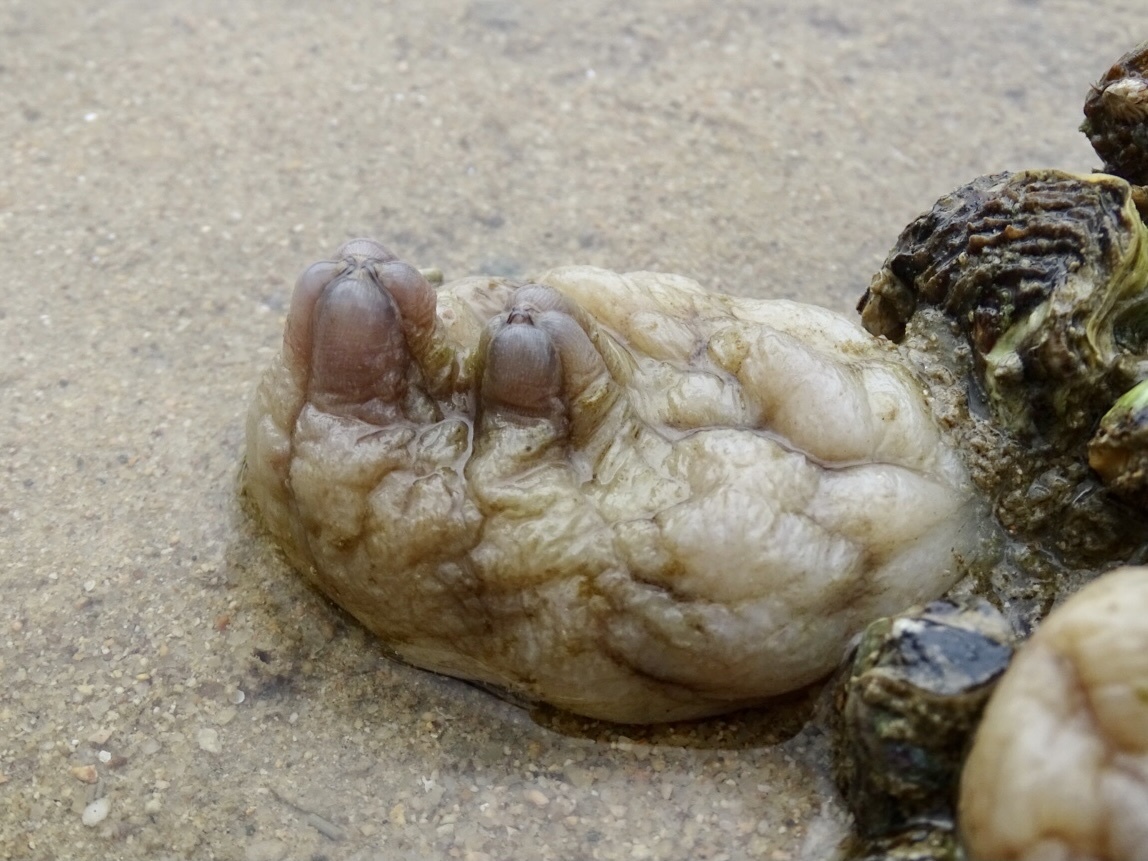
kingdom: Animalia
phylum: Chordata
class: Ascidiacea
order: Stolidobranchia
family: Styelidae
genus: Styela
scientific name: Styela plicata
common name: Pleated tunicate
